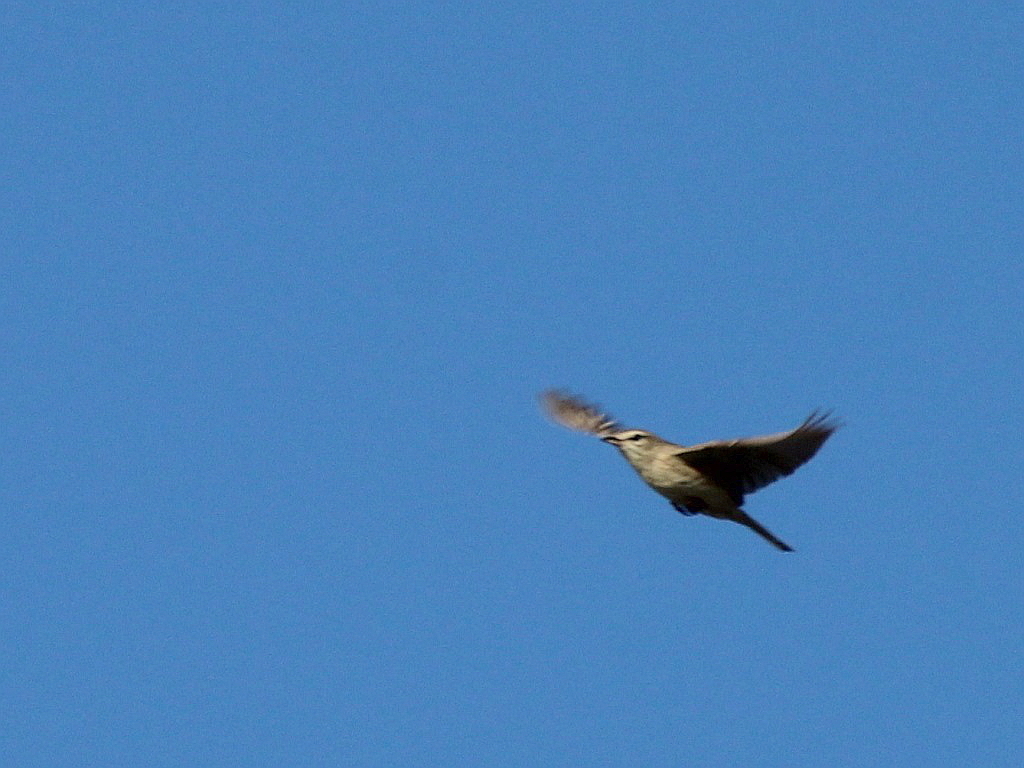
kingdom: Animalia
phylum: Chordata
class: Aves
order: Passeriformes
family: Motacillidae
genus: Anthus
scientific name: Anthus campestris
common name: Tawny pipit
